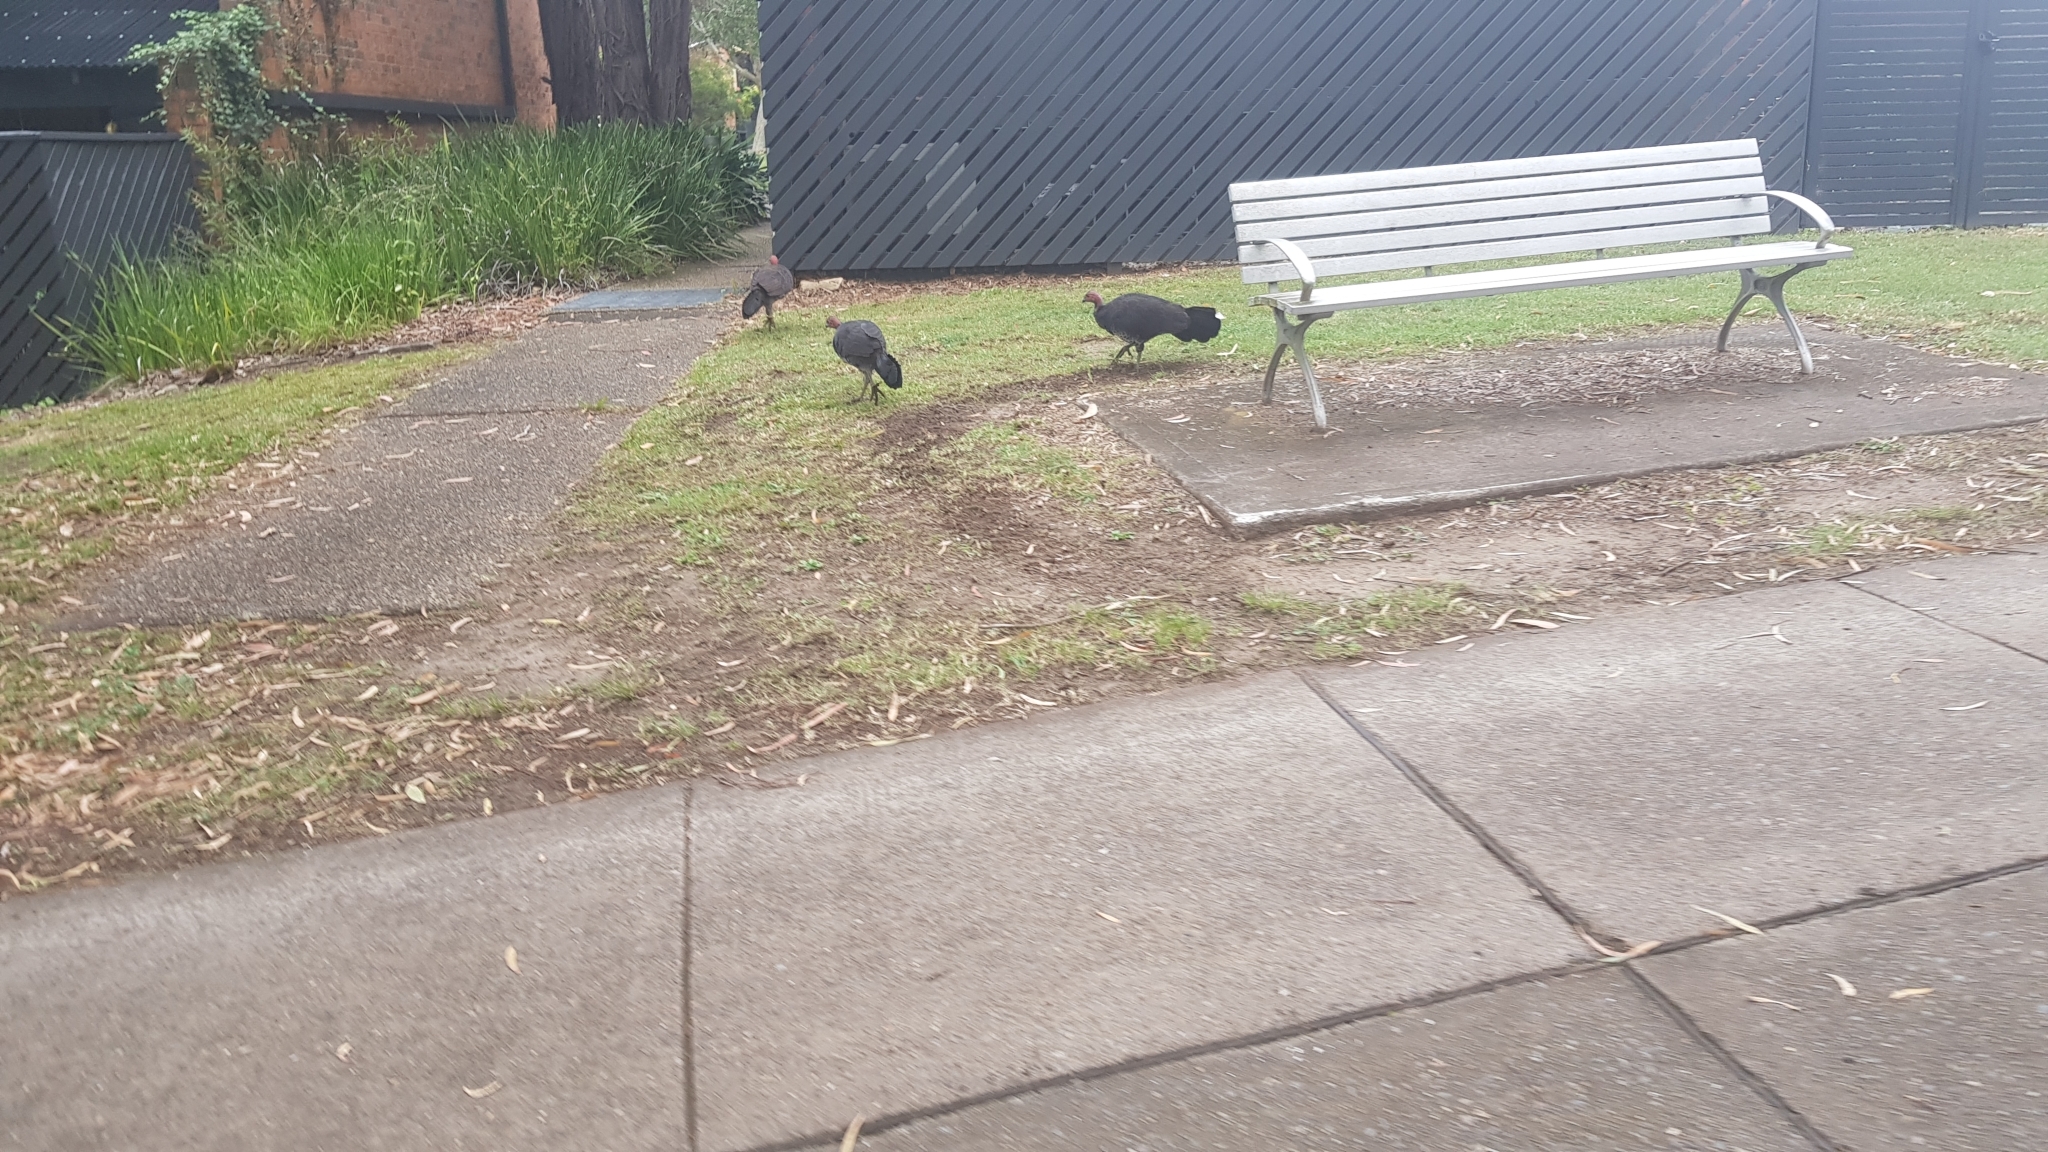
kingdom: Animalia
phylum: Chordata
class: Aves
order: Galliformes
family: Megapodiidae
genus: Alectura
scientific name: Alectura lathami
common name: Australian brushturkey
